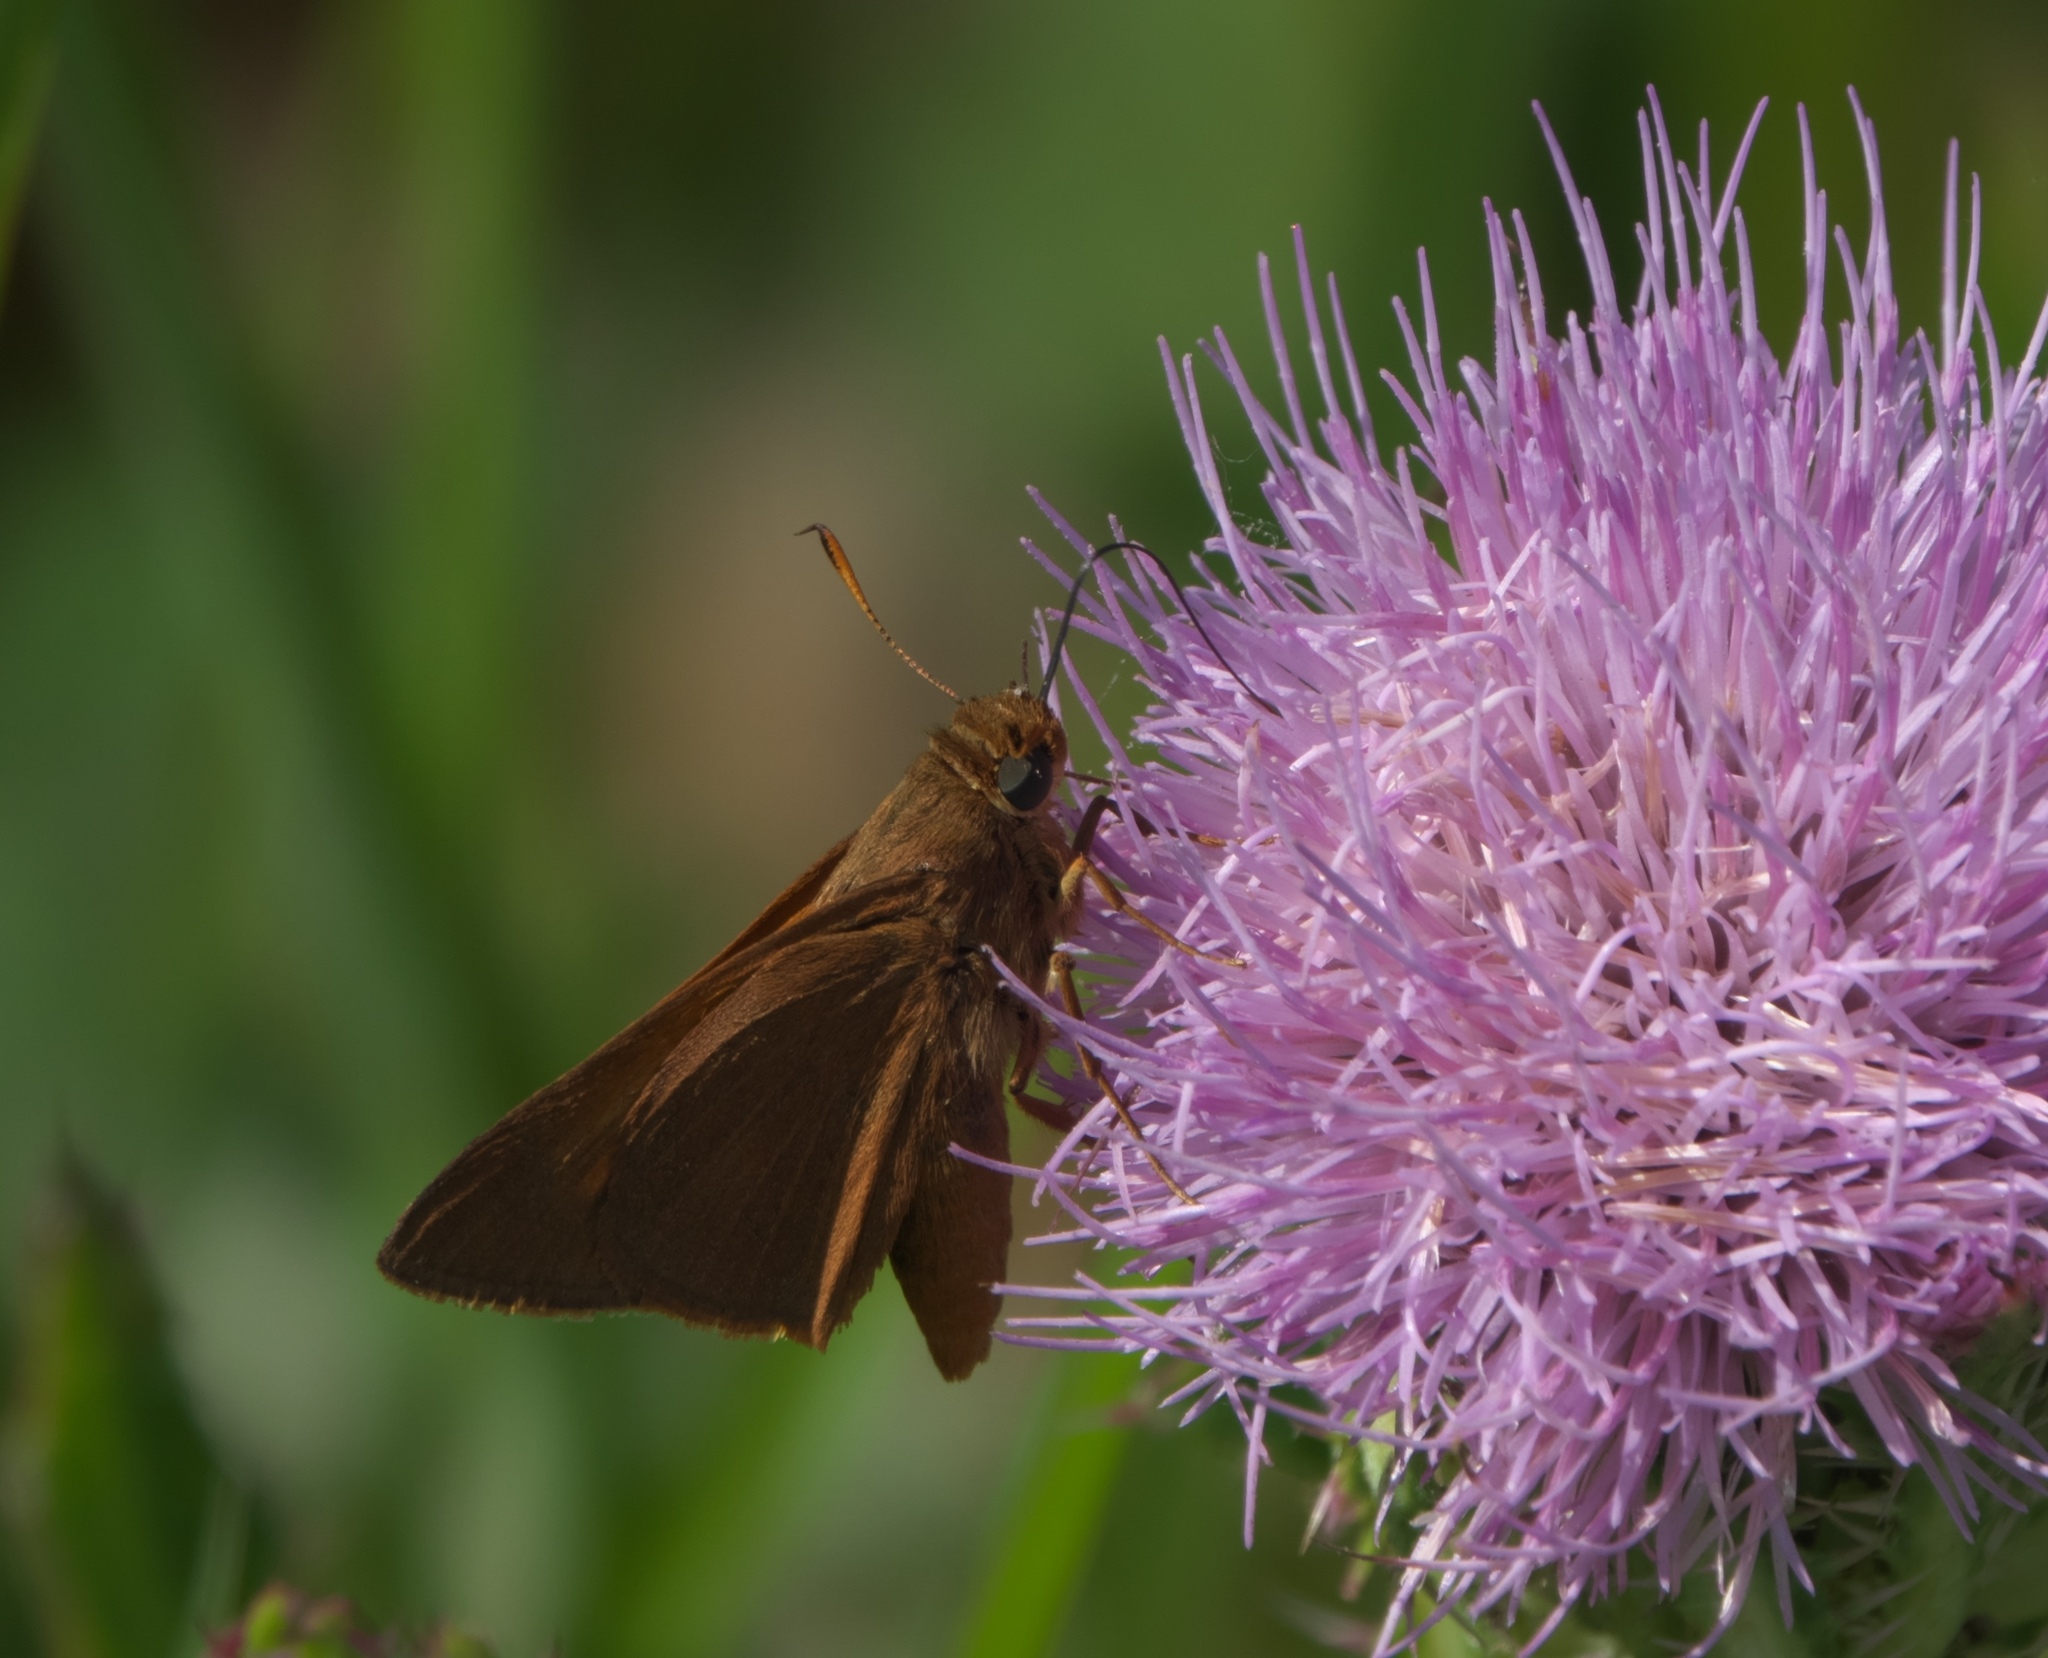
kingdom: Animalia
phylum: Arthropoda
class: Insecta
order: Lepidoptera
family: Hesperiidae
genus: Euphyes
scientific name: Euphyes pilatka
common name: Palatka skipper
